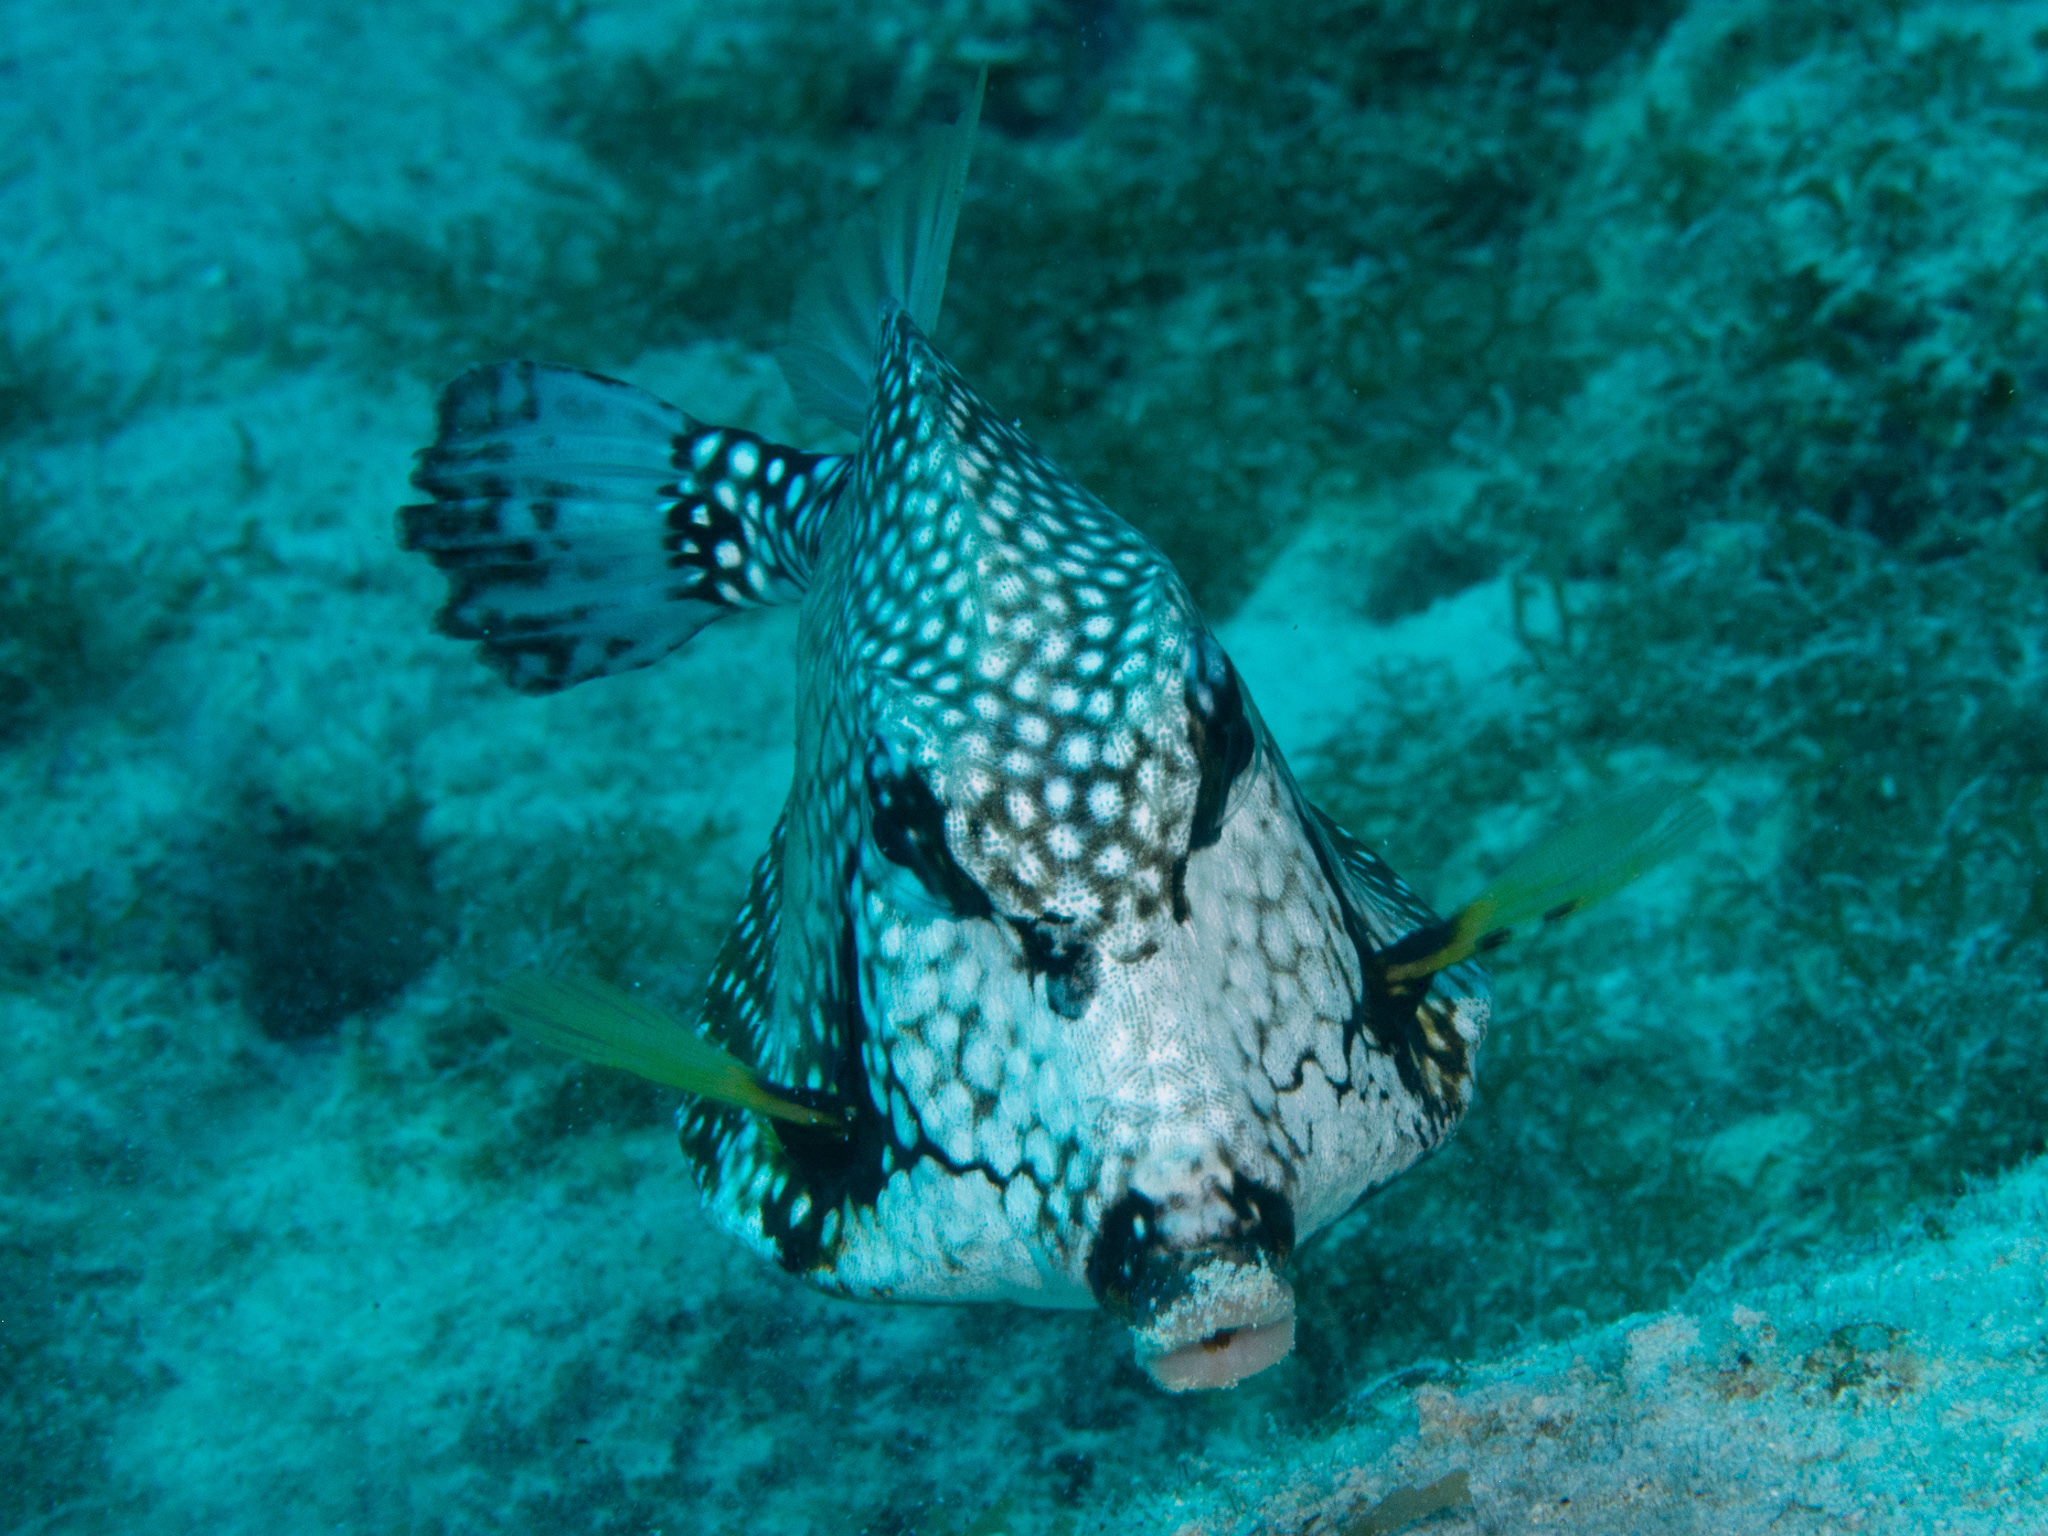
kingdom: Animalia
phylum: Chordata
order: Tetraodontiformes
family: Ostraciidae
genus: Lactophrys
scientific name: Lactophrys triqueter
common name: Smooth trunkfish
